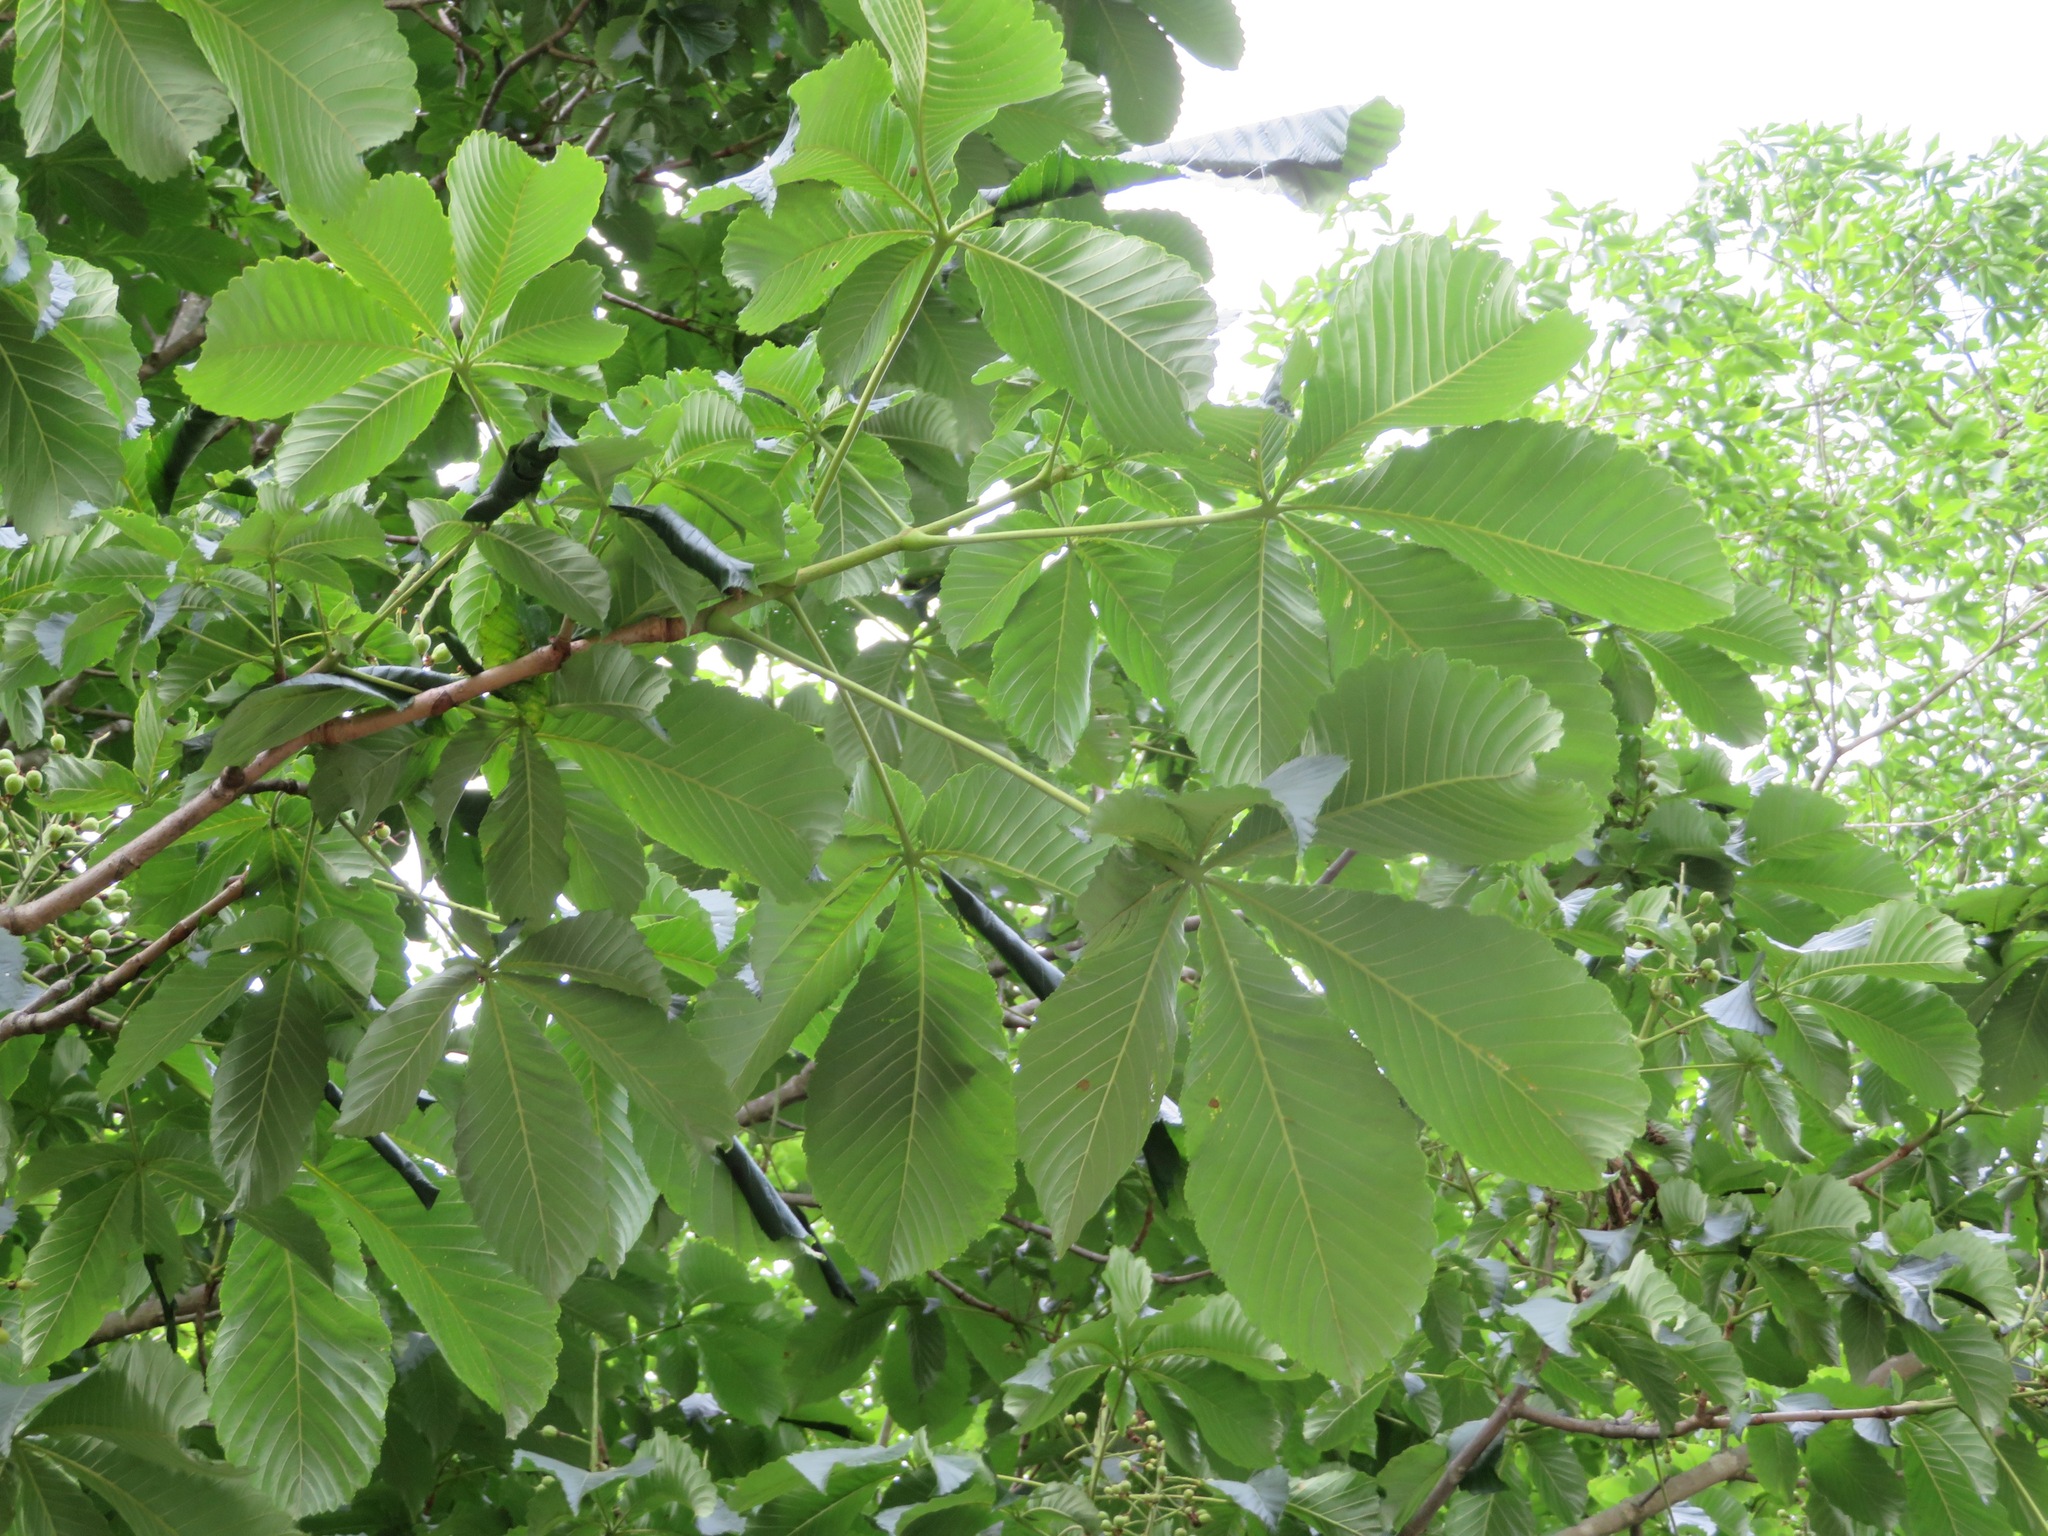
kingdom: Plantae
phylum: Tracheophyta
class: Magnoliopsida
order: Sapindales
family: Sapindaceae
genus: Aesculus
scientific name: Aesculus turbinata
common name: Japanese horse-chestnut
